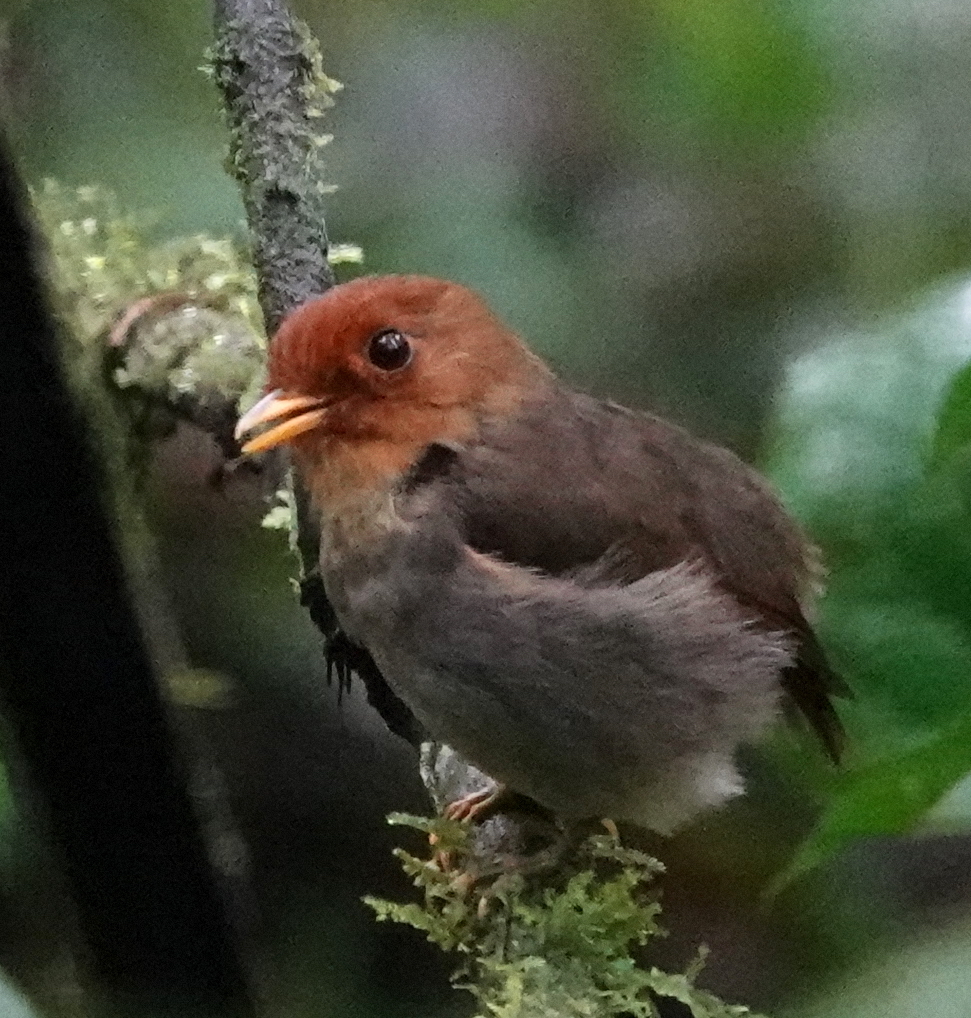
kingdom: Animalia
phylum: Chordata
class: Aves
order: Passeriformes
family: Grallariidae
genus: Grallaricula
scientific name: Grallaricula cucullata
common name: Hooded antpitta
